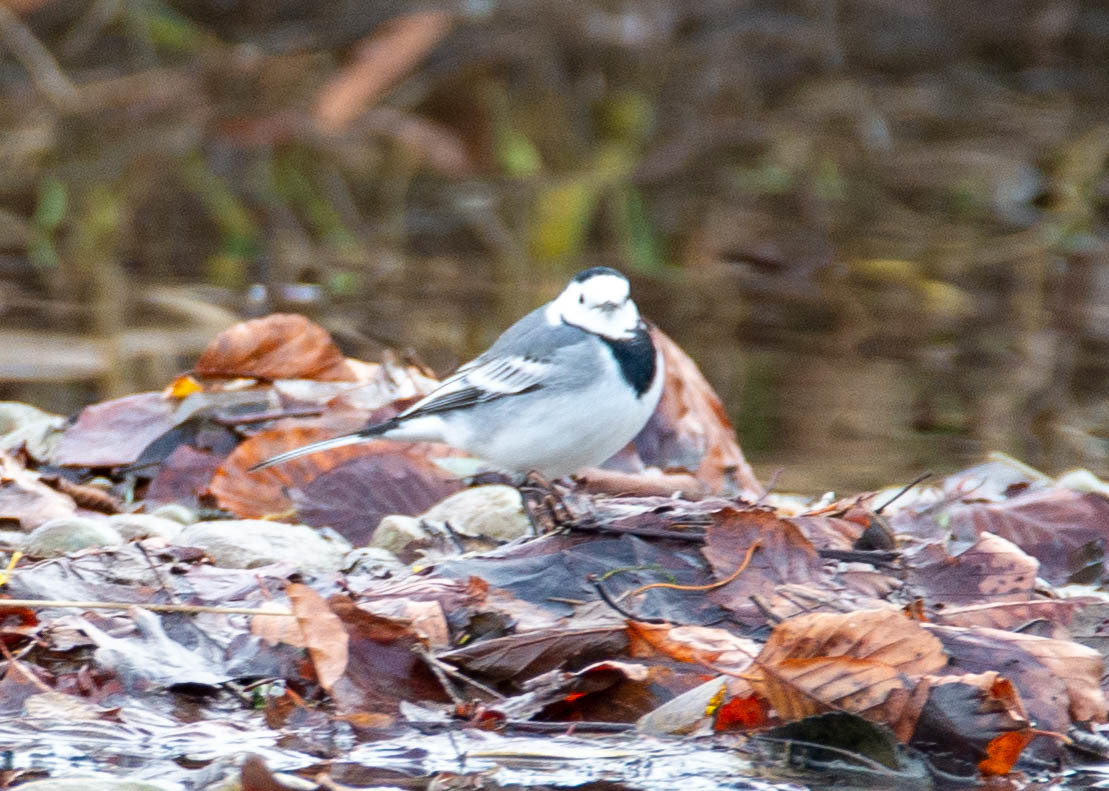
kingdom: Animalia
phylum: Chordata
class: Aves
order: Passeriformes
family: Motacillidae
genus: Motacilla
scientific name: Motacilla alba
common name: White wagtail
